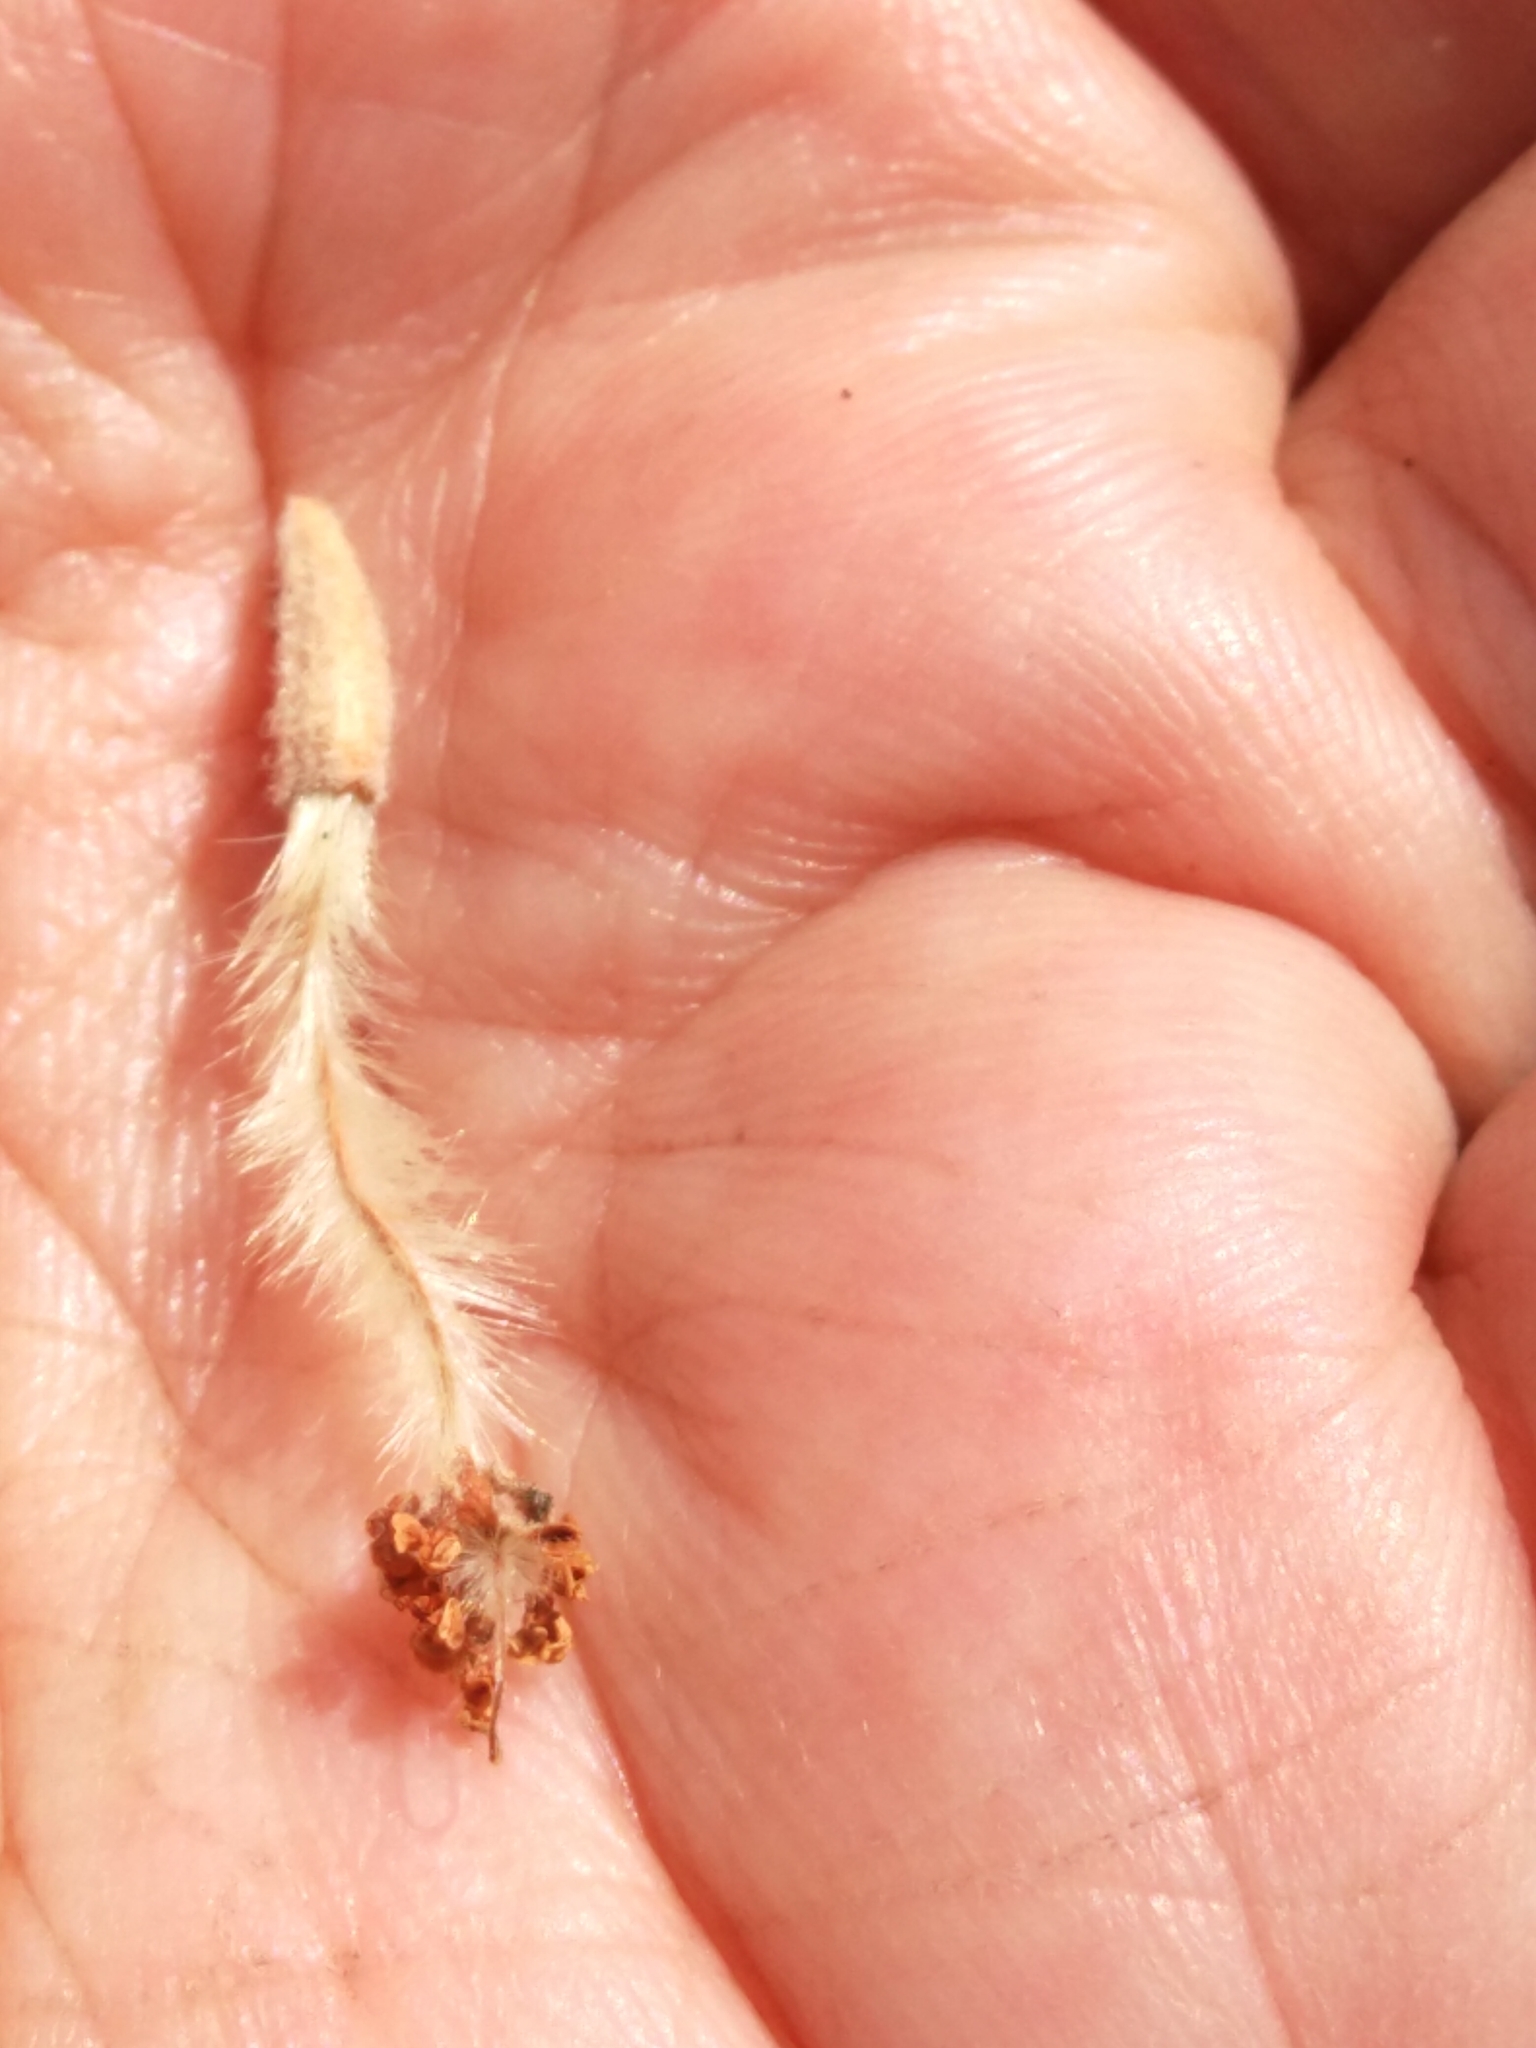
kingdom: Plantae
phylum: Tracheophyta
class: Magnoliopsida
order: Rosales
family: Rosaceae
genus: Cercocarpus
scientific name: Cercocarpus ledifolius
